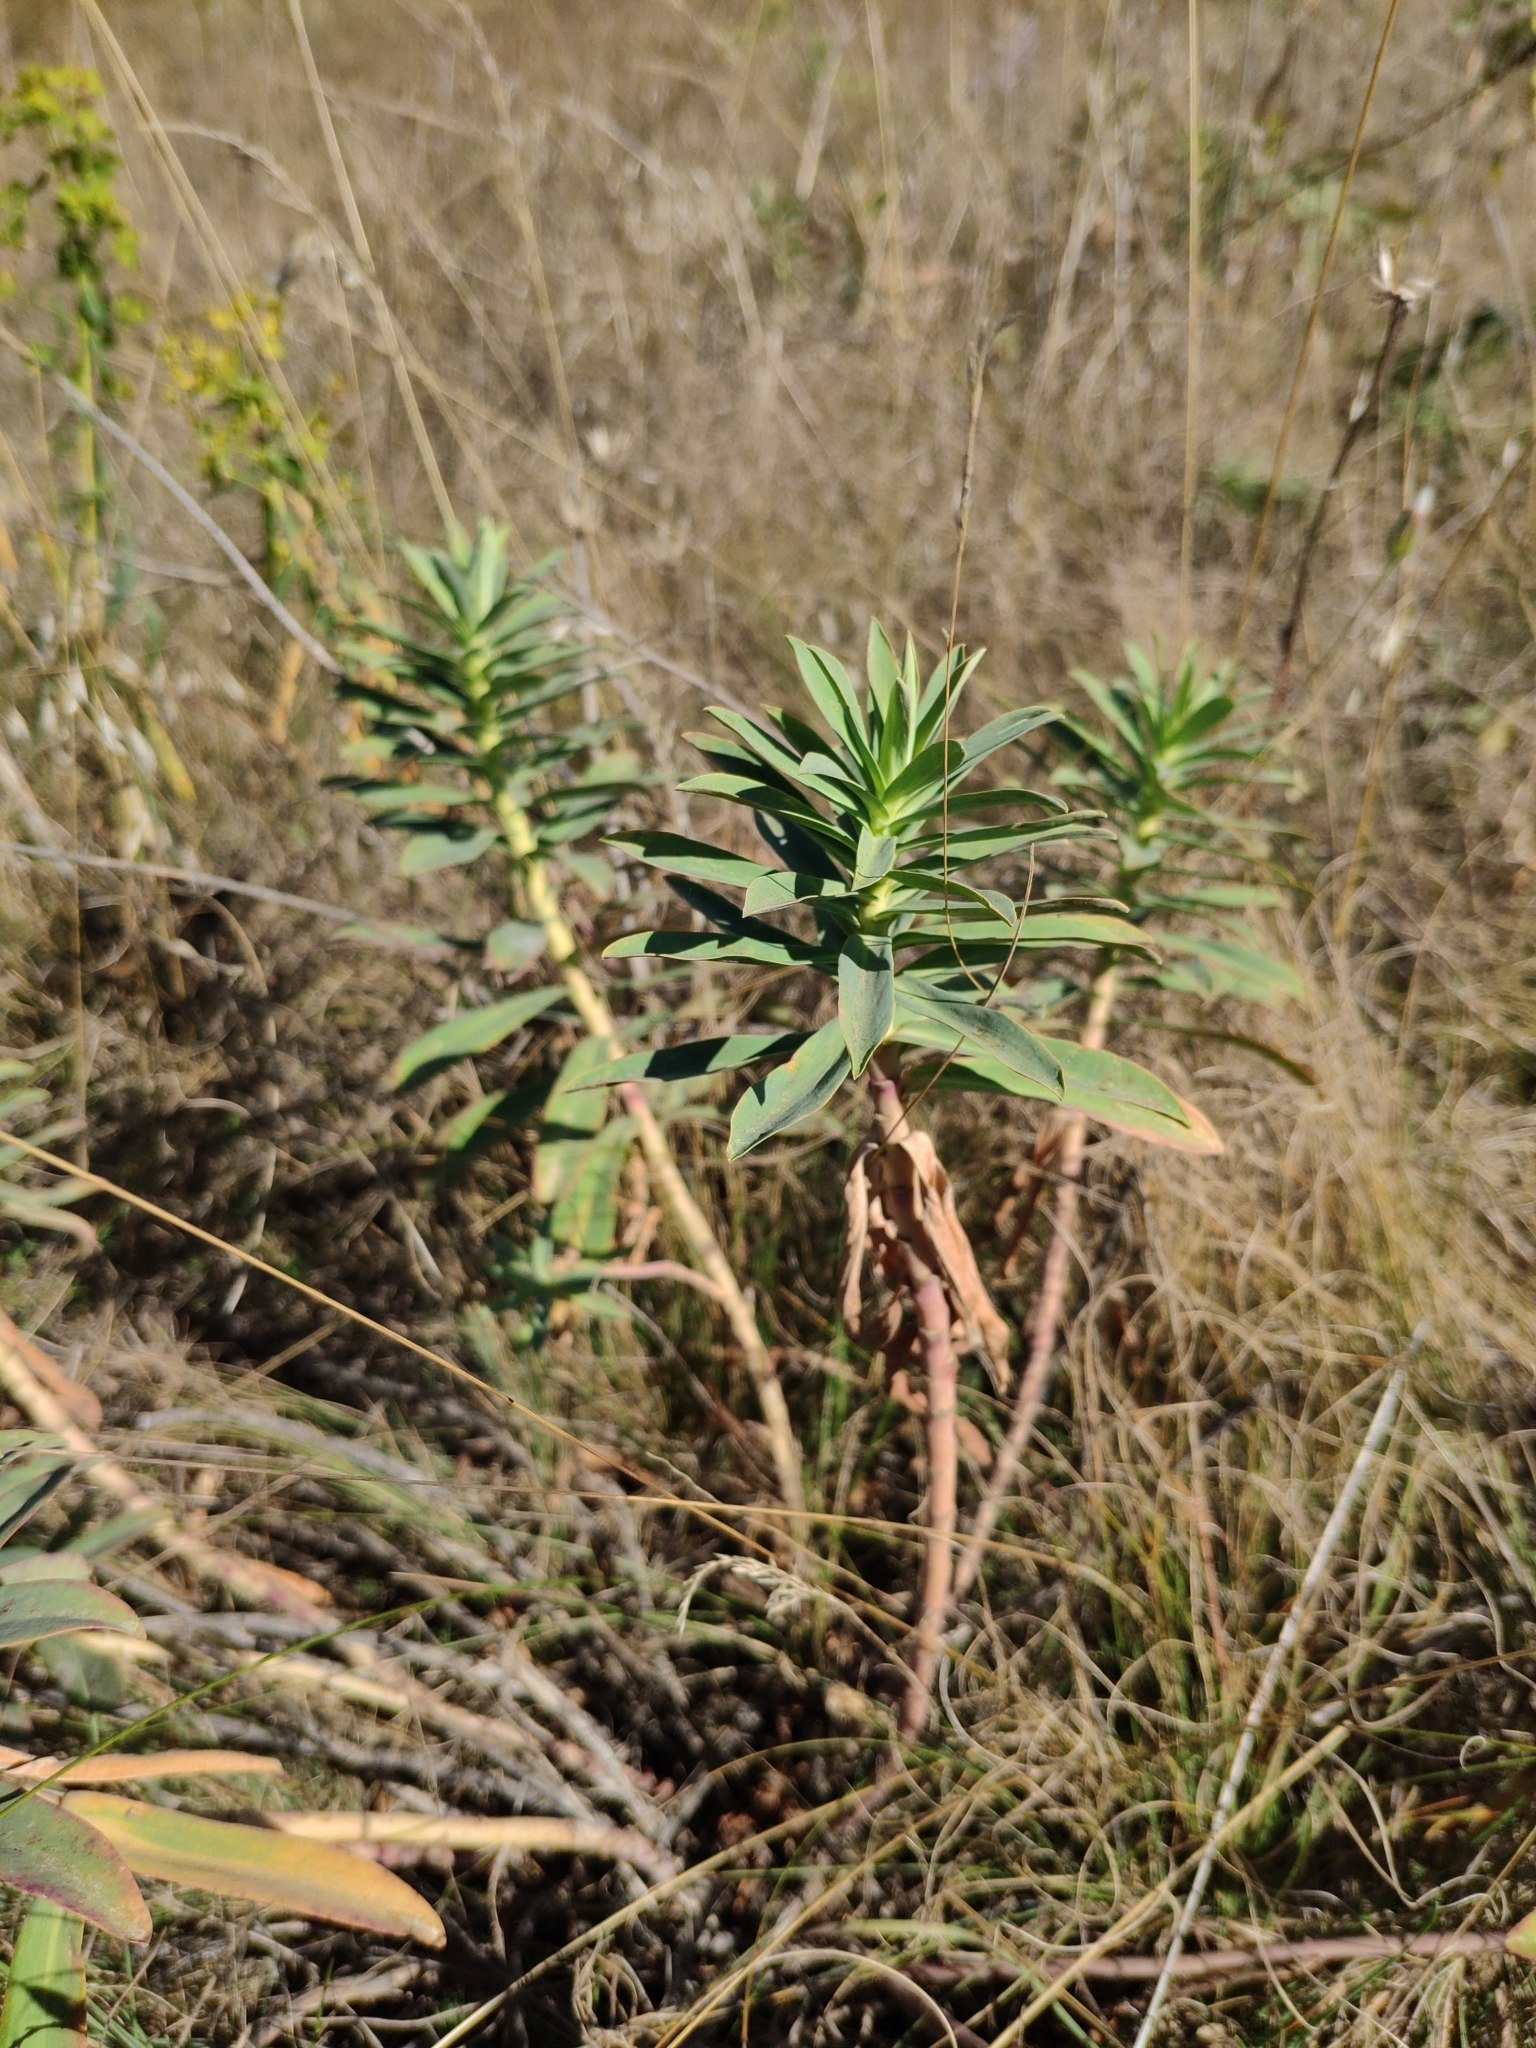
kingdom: Plantae
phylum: Tracheophyta
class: Magnoliopsida
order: Malpighiales
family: Euphorbiaceae
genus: Euphorbia
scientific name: Euphorbia stepposa
